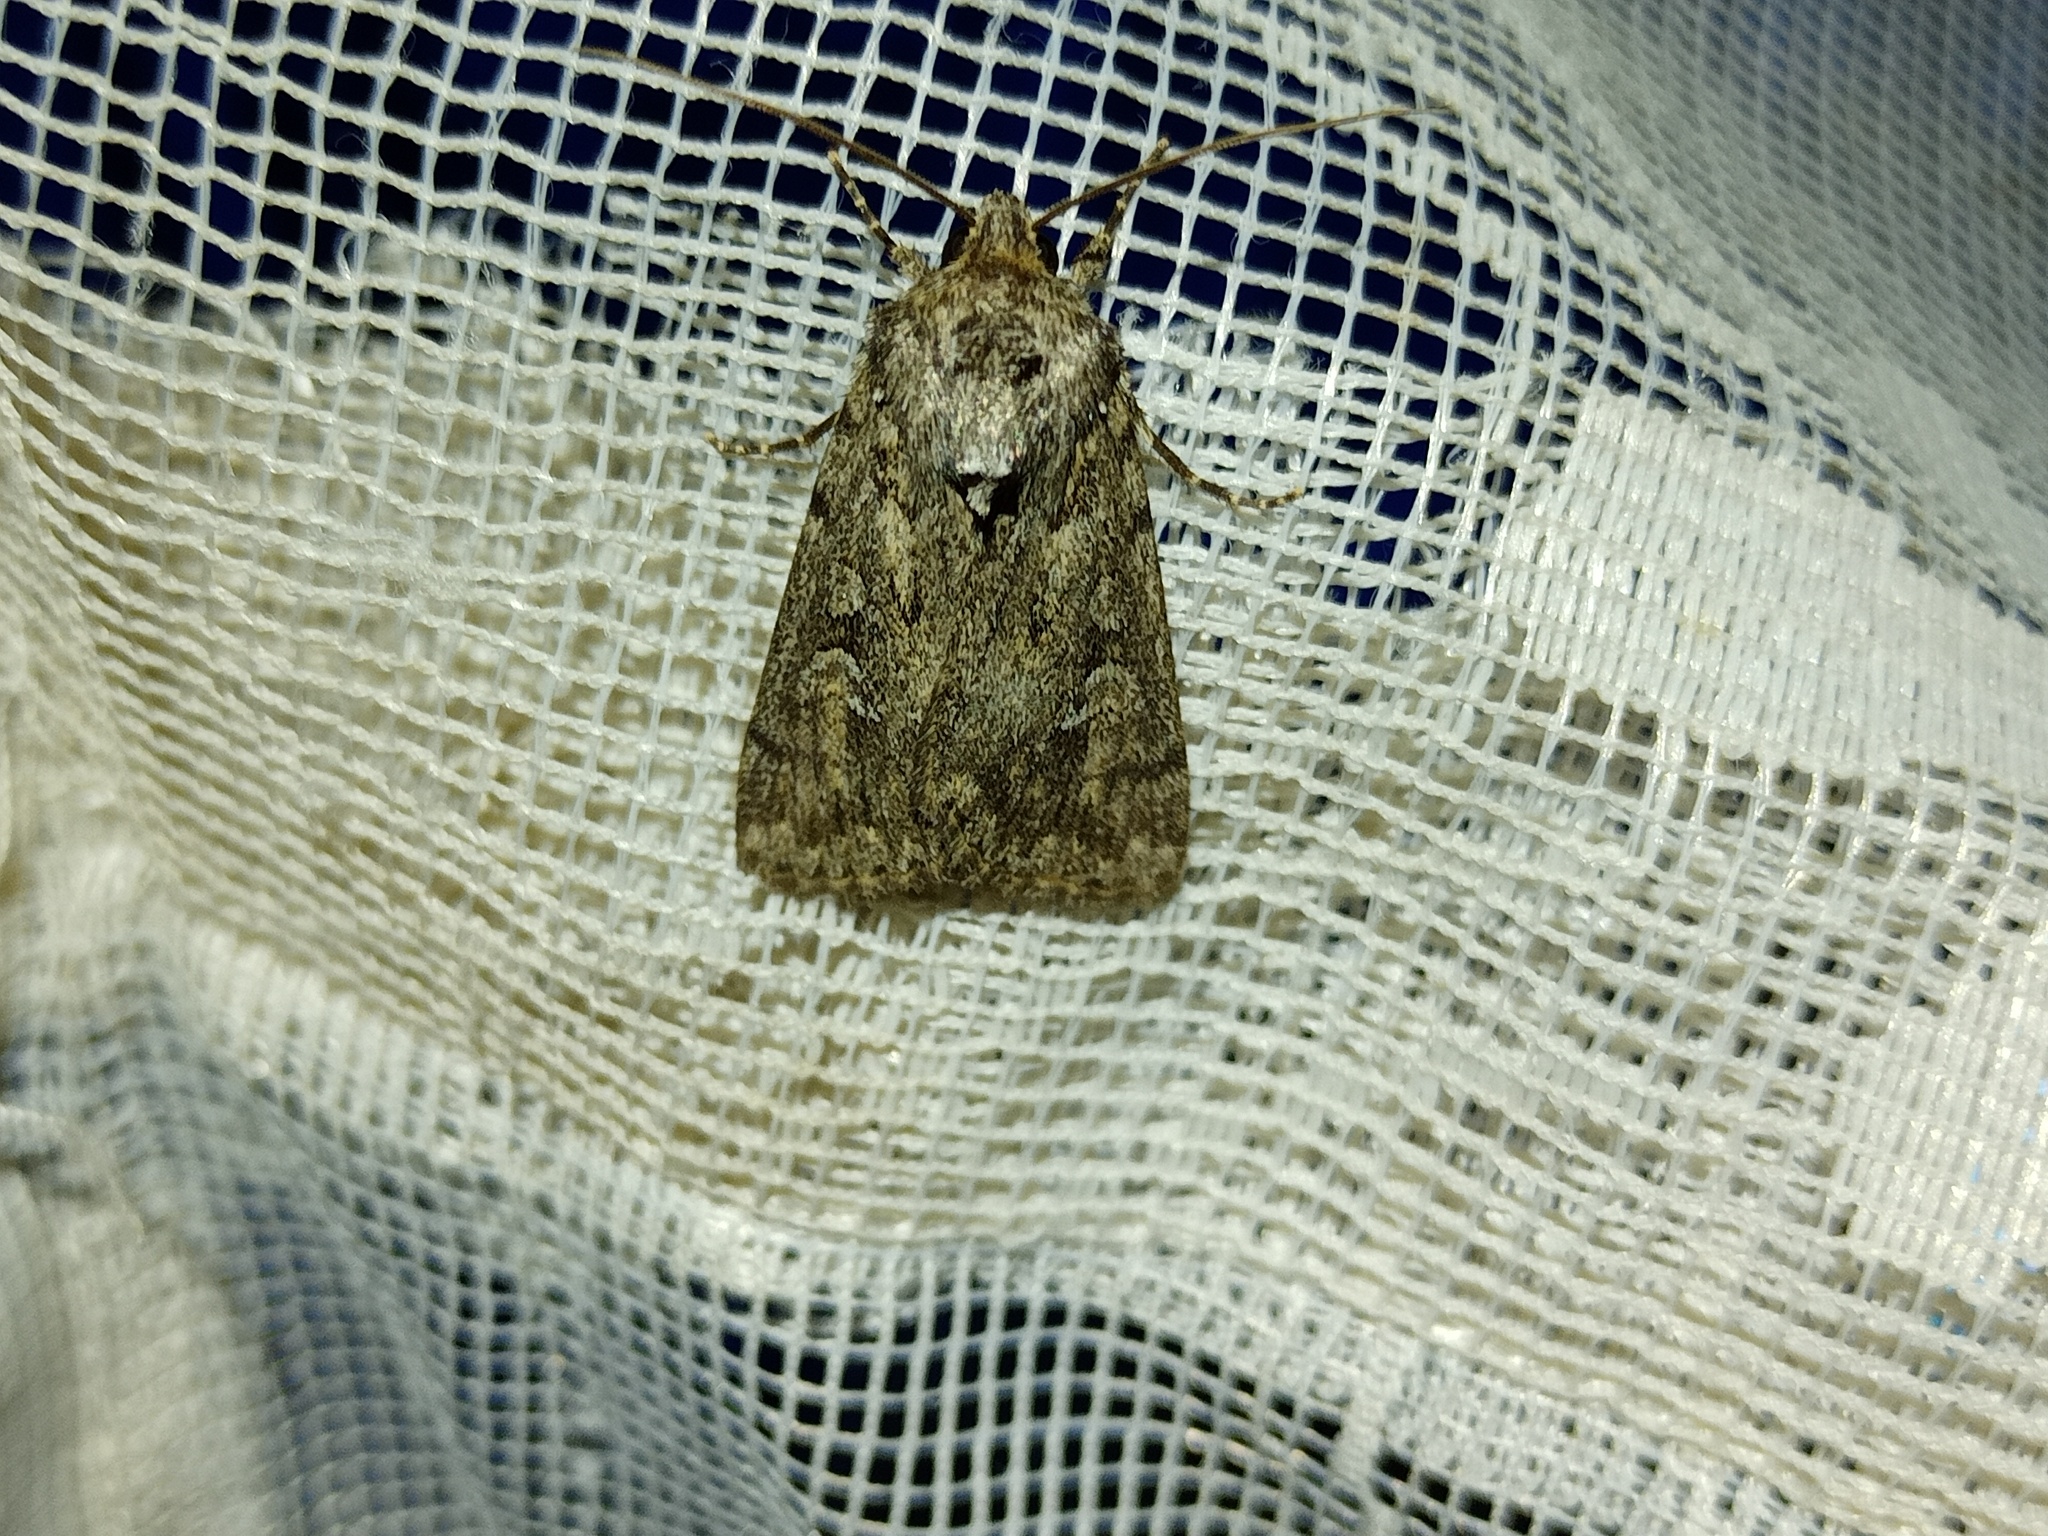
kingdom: Animalia
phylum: Arthropoda
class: Insecta
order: Lepidoptera
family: Noctuidae
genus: Yigoga
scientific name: Yigoga forcipula
